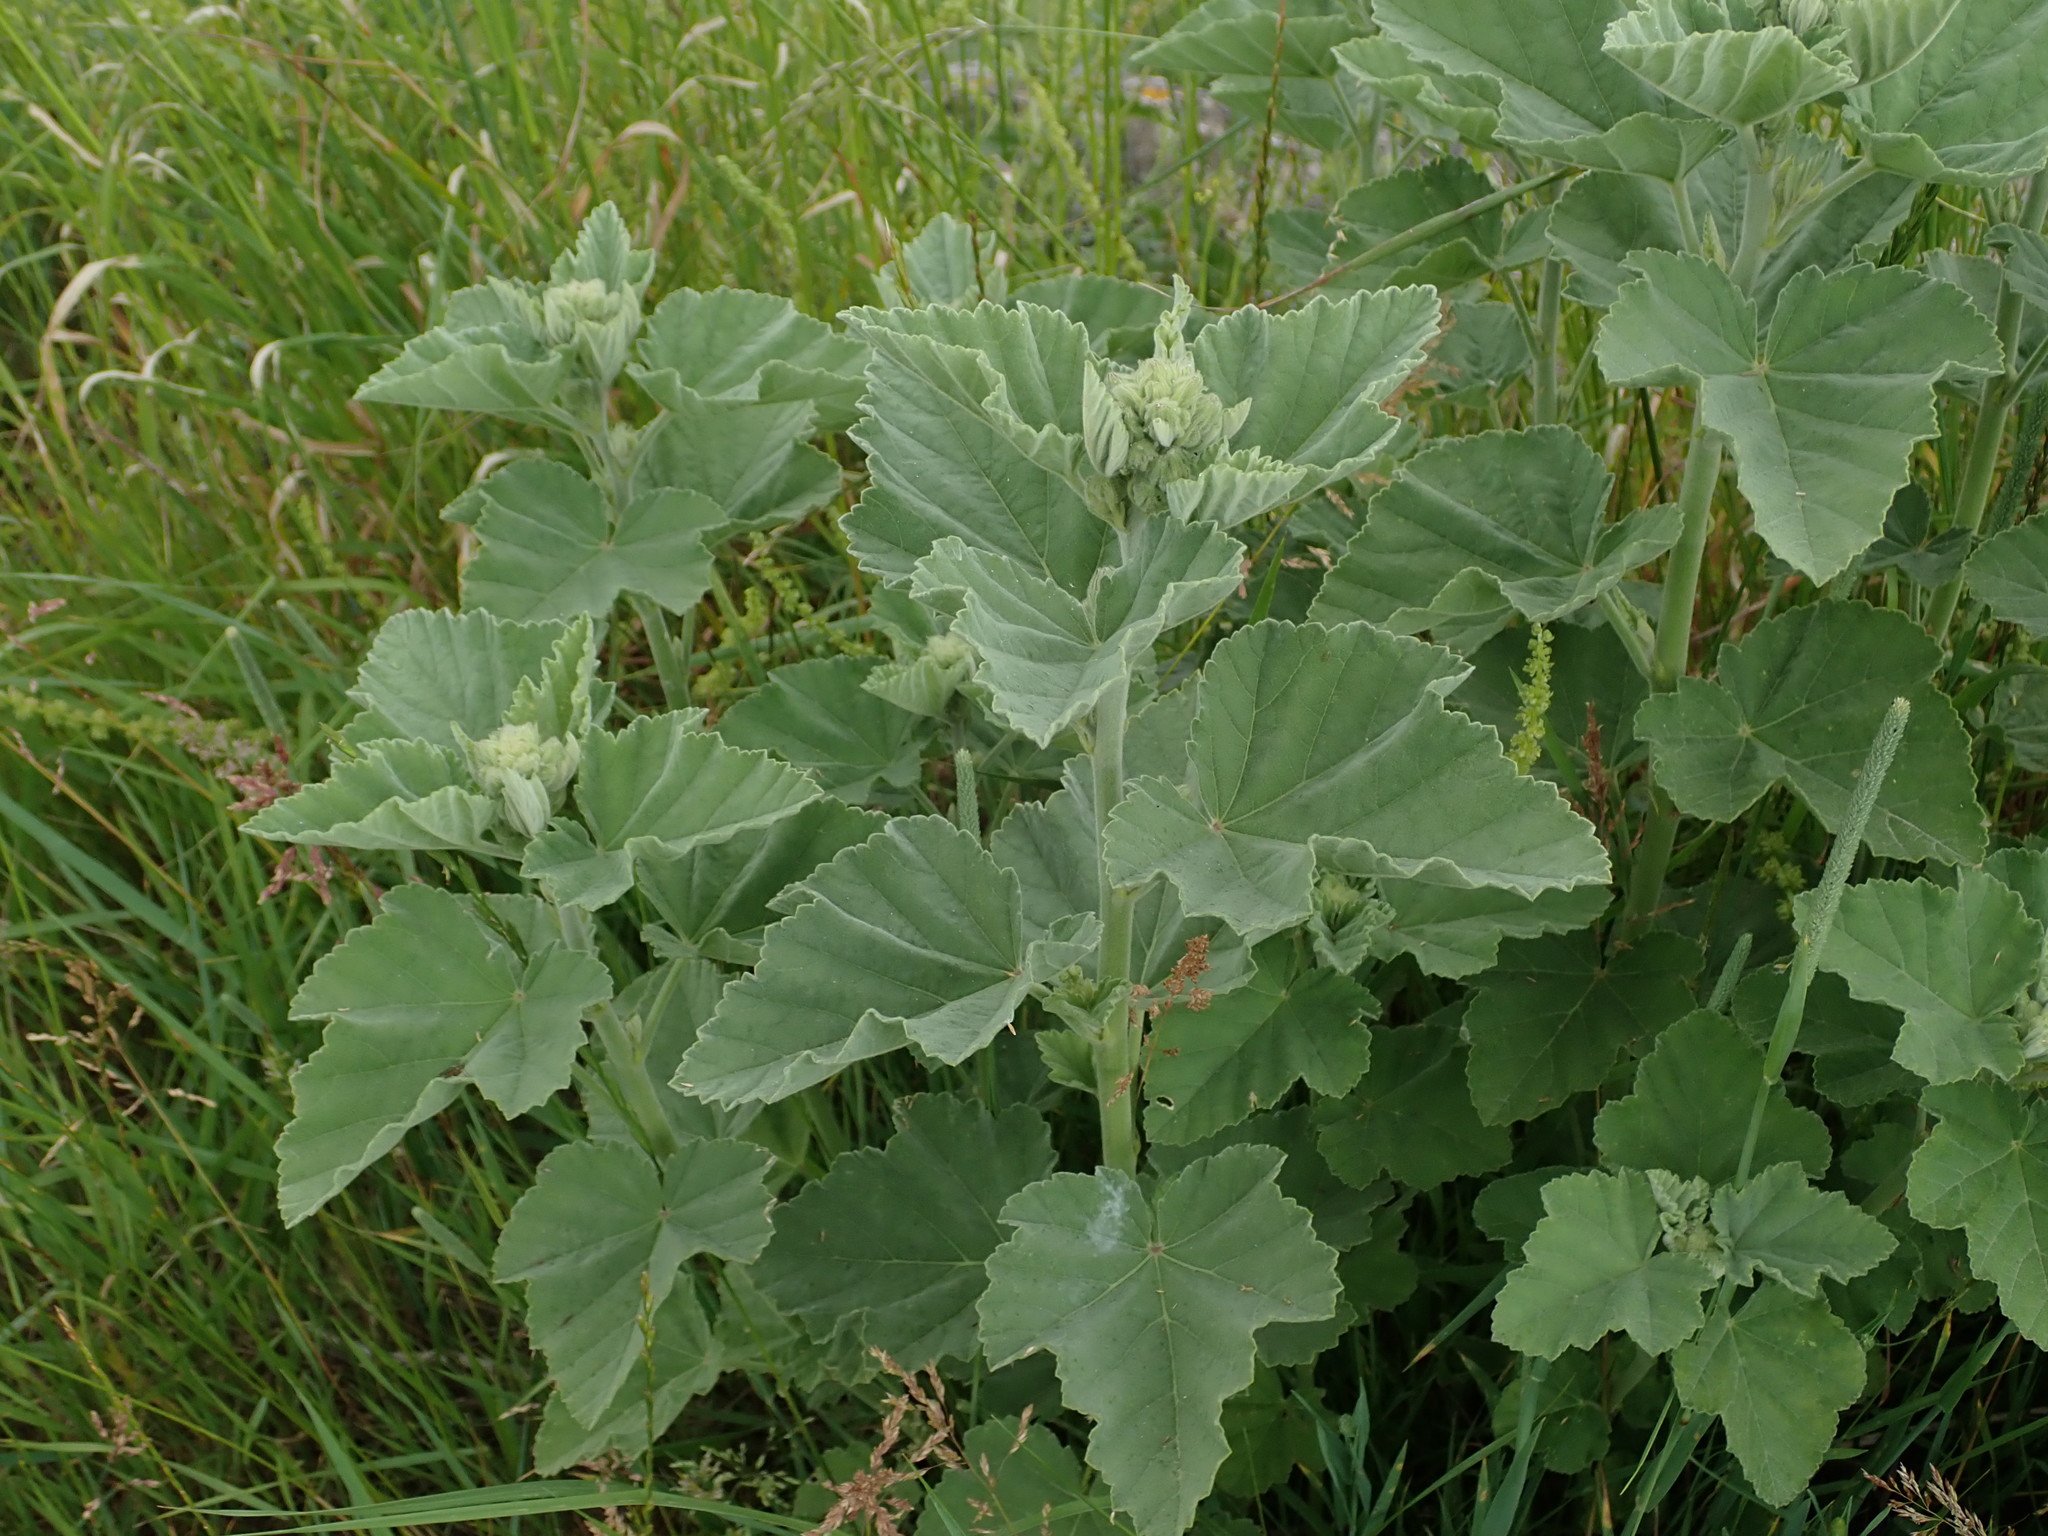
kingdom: Plantae
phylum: Tracheophyta
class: Magnoliopsida
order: Malvales
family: Malvaceae
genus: Althaea
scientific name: Althaea officinalis
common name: Marsh-mallow
